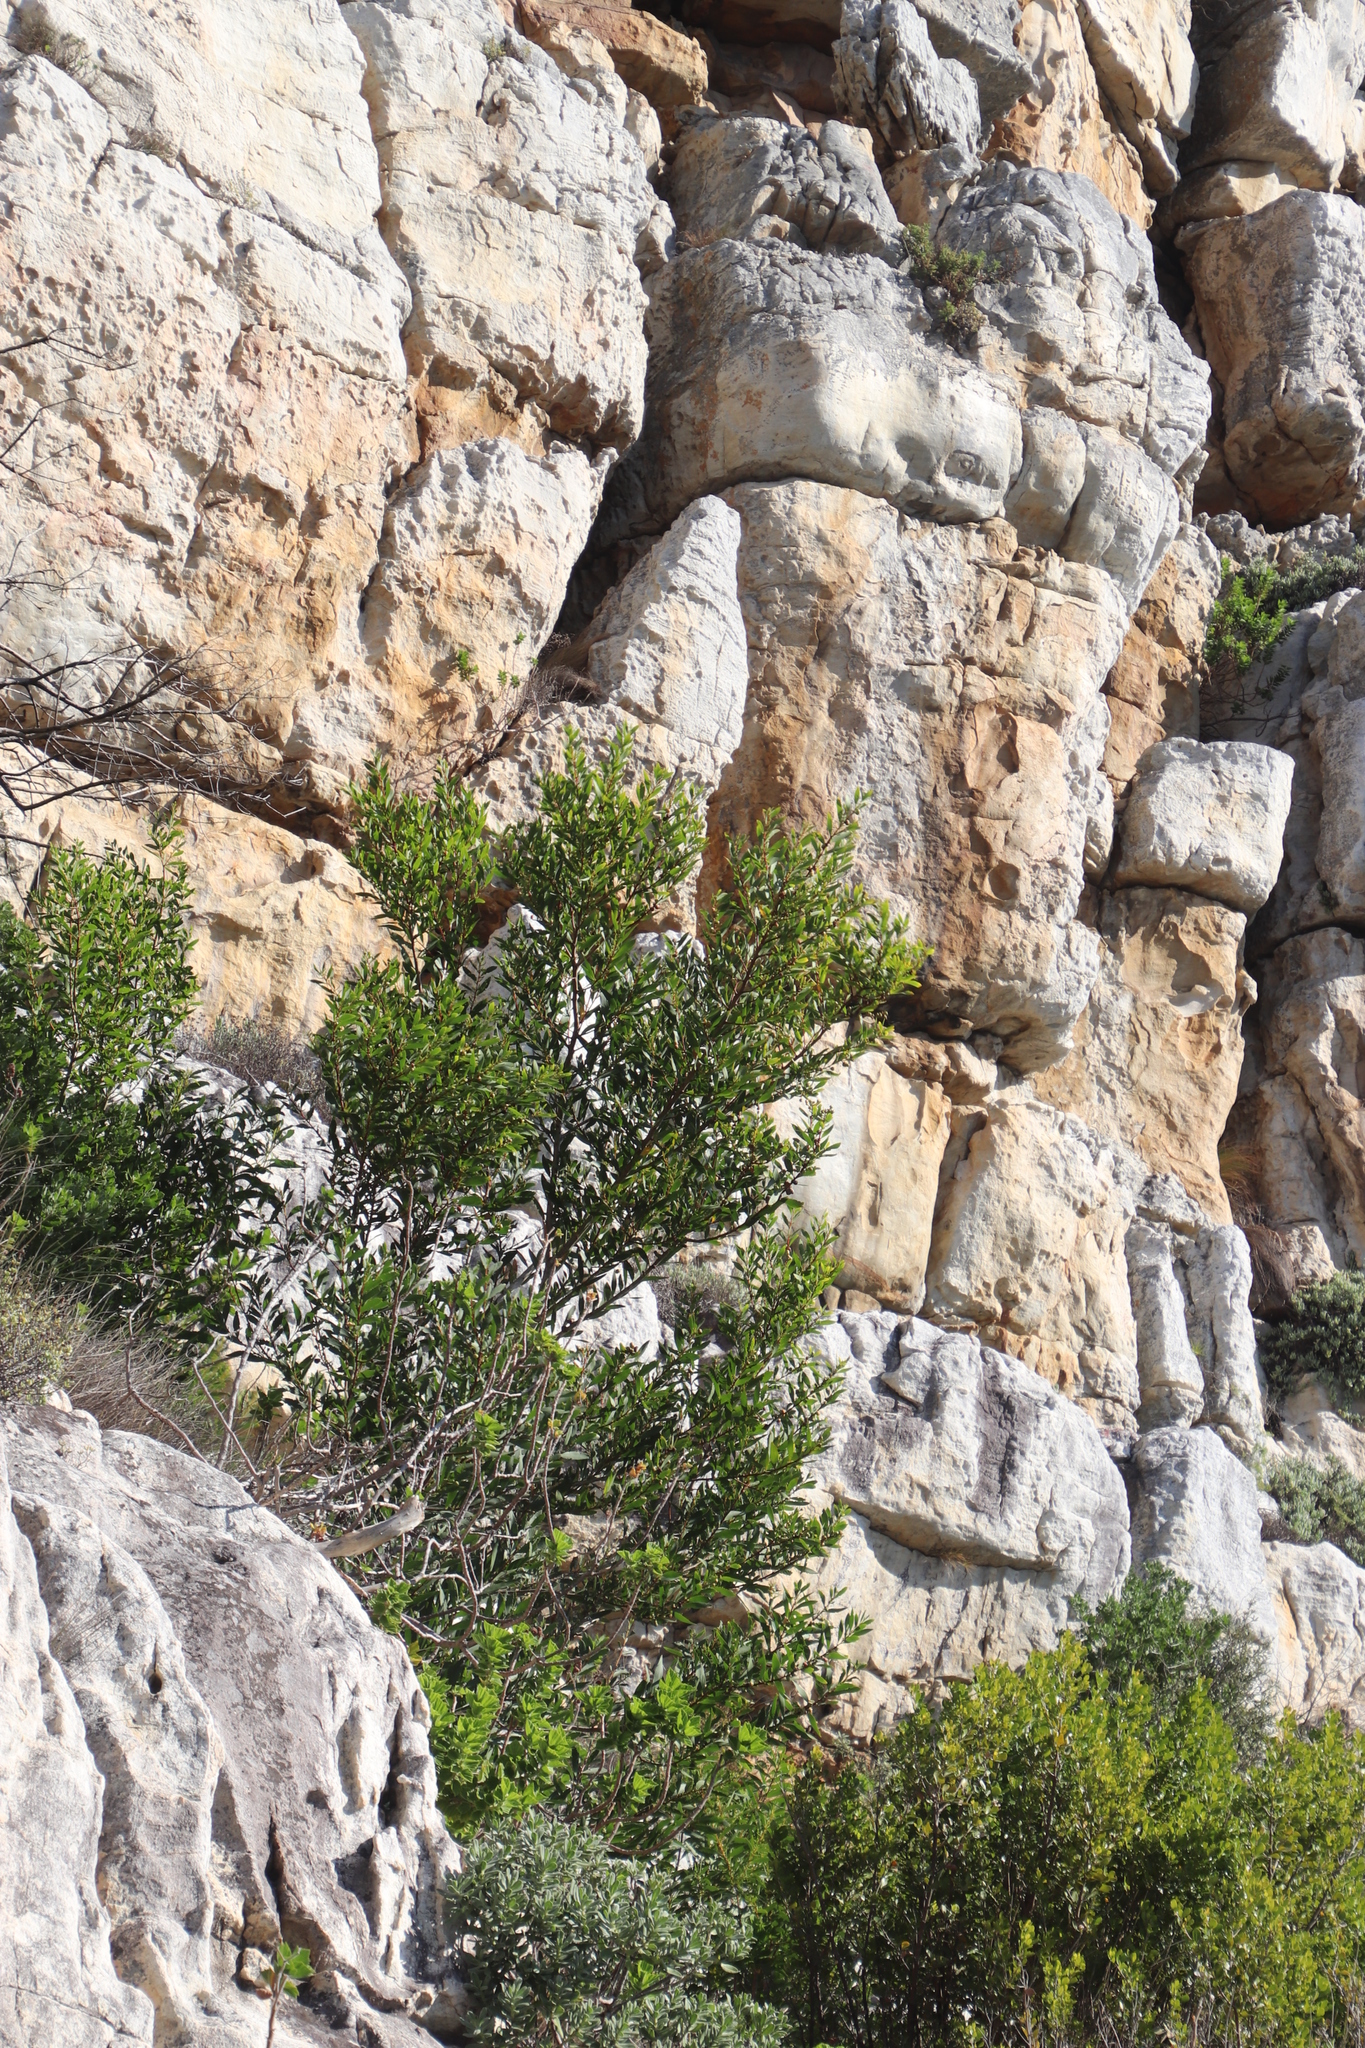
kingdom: Plantae
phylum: Tracheophyta
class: Magnoliopsida
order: Fabales
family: Fabaceae
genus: Acacia
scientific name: Acacia longifolia
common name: Sydney golden wattle
